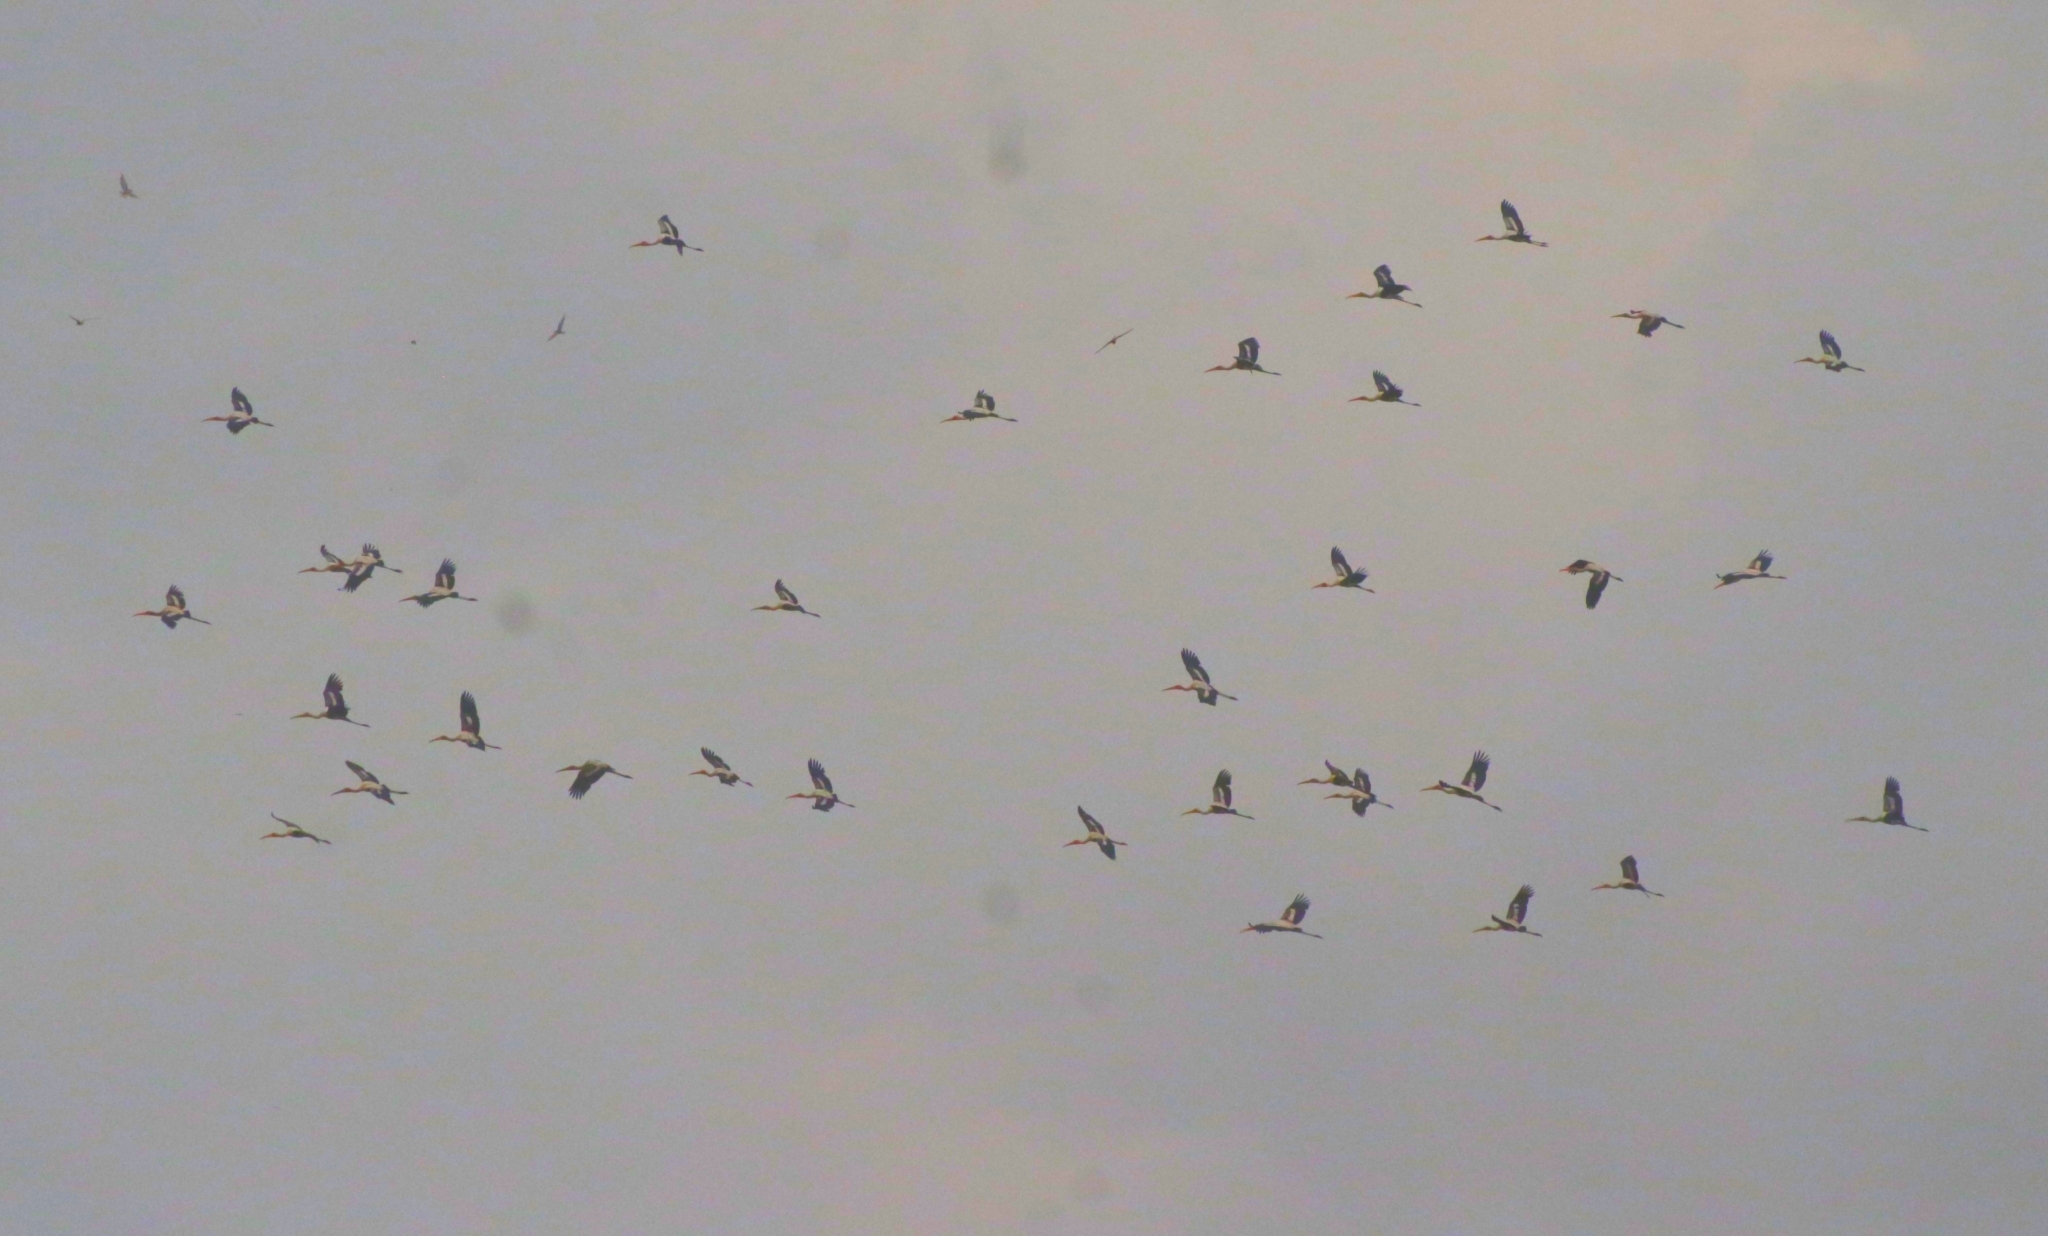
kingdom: Animalia
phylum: Chordata
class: Aves
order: Ciconiiformes
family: Ciconiidae
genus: Mycteria
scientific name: Mycteria leucocephala
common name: Painted stork
